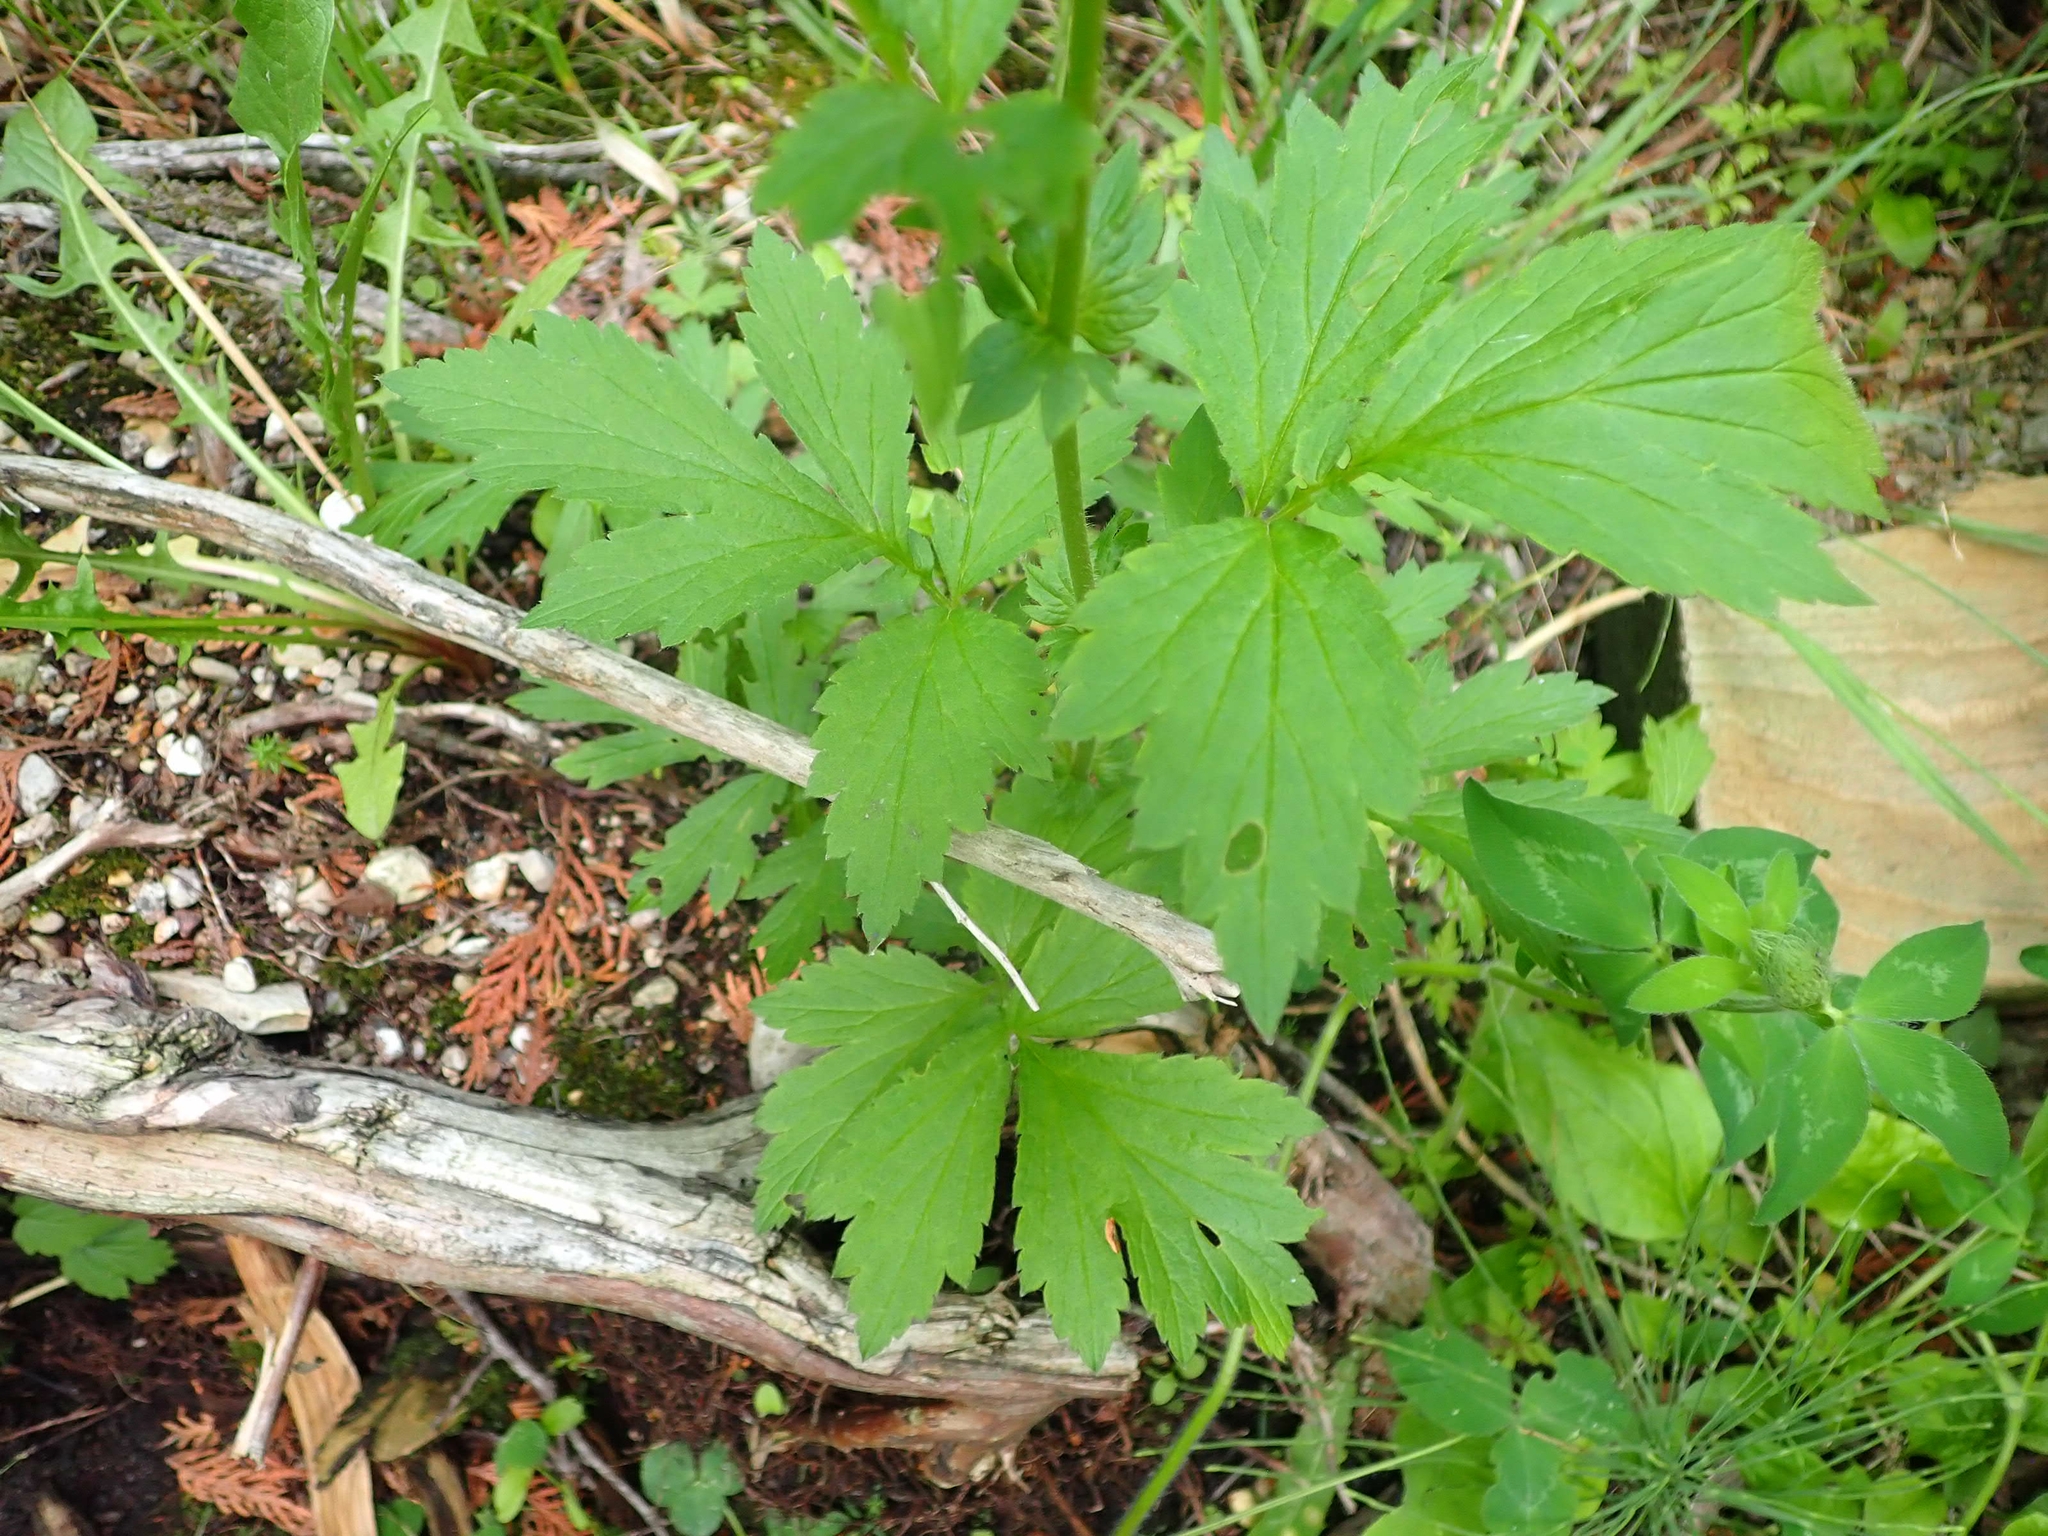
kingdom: Plantae
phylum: Tracheophyta
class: Magnoliopsida
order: Rosales
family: Rosaceae
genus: Geum
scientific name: Geum aleppicum
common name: Yellow avens
